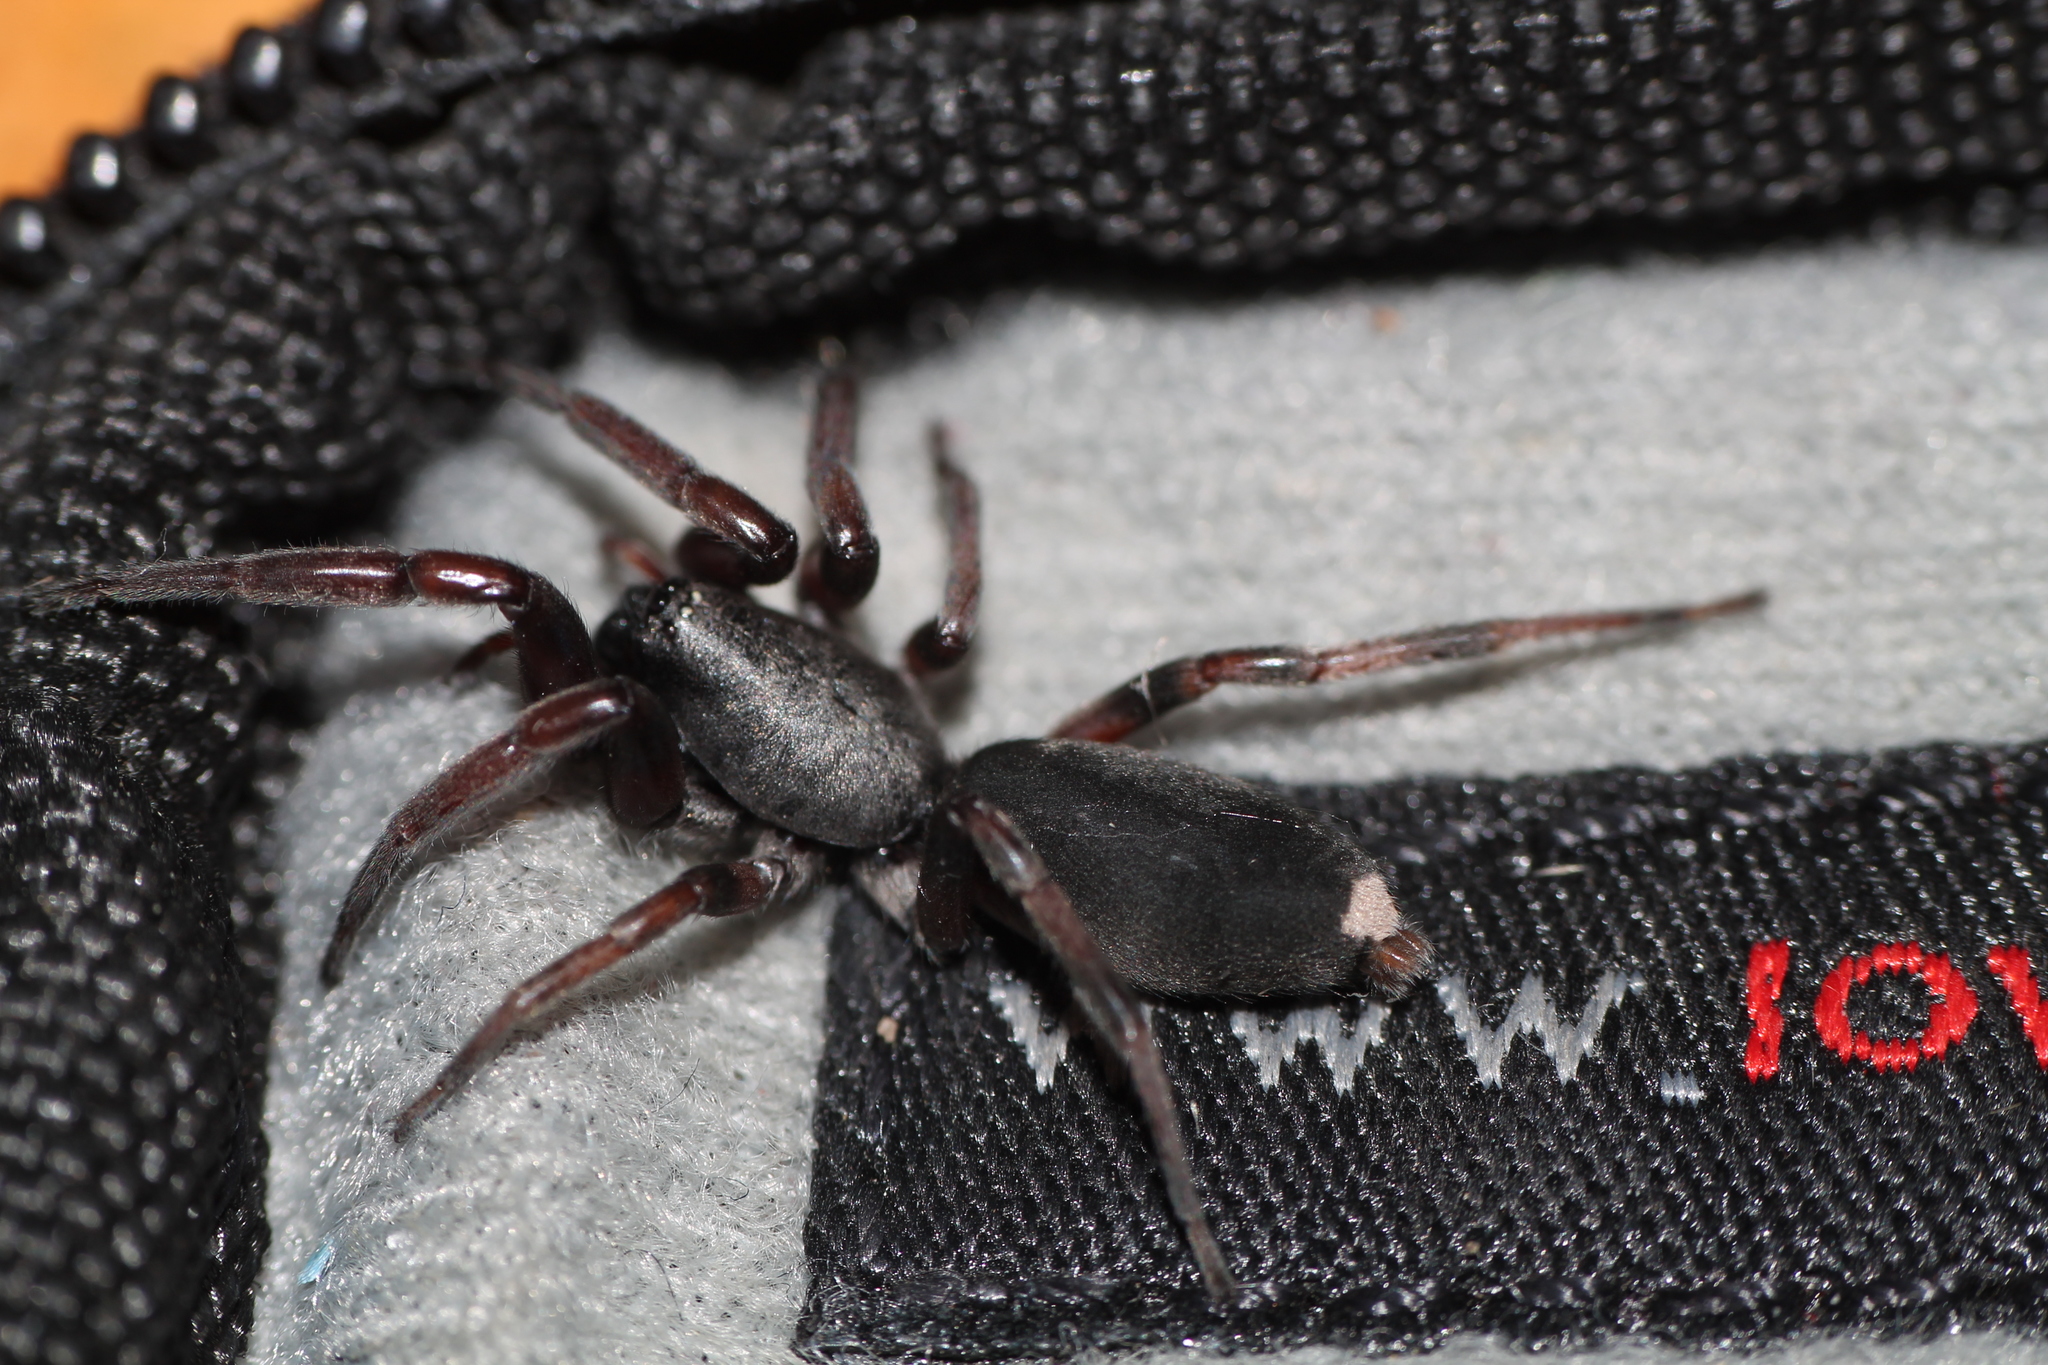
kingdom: Animalia
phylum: Arthropoda
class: Arachnida
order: Araneae
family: Lamponidae
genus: Lampona
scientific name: Lampona murina
